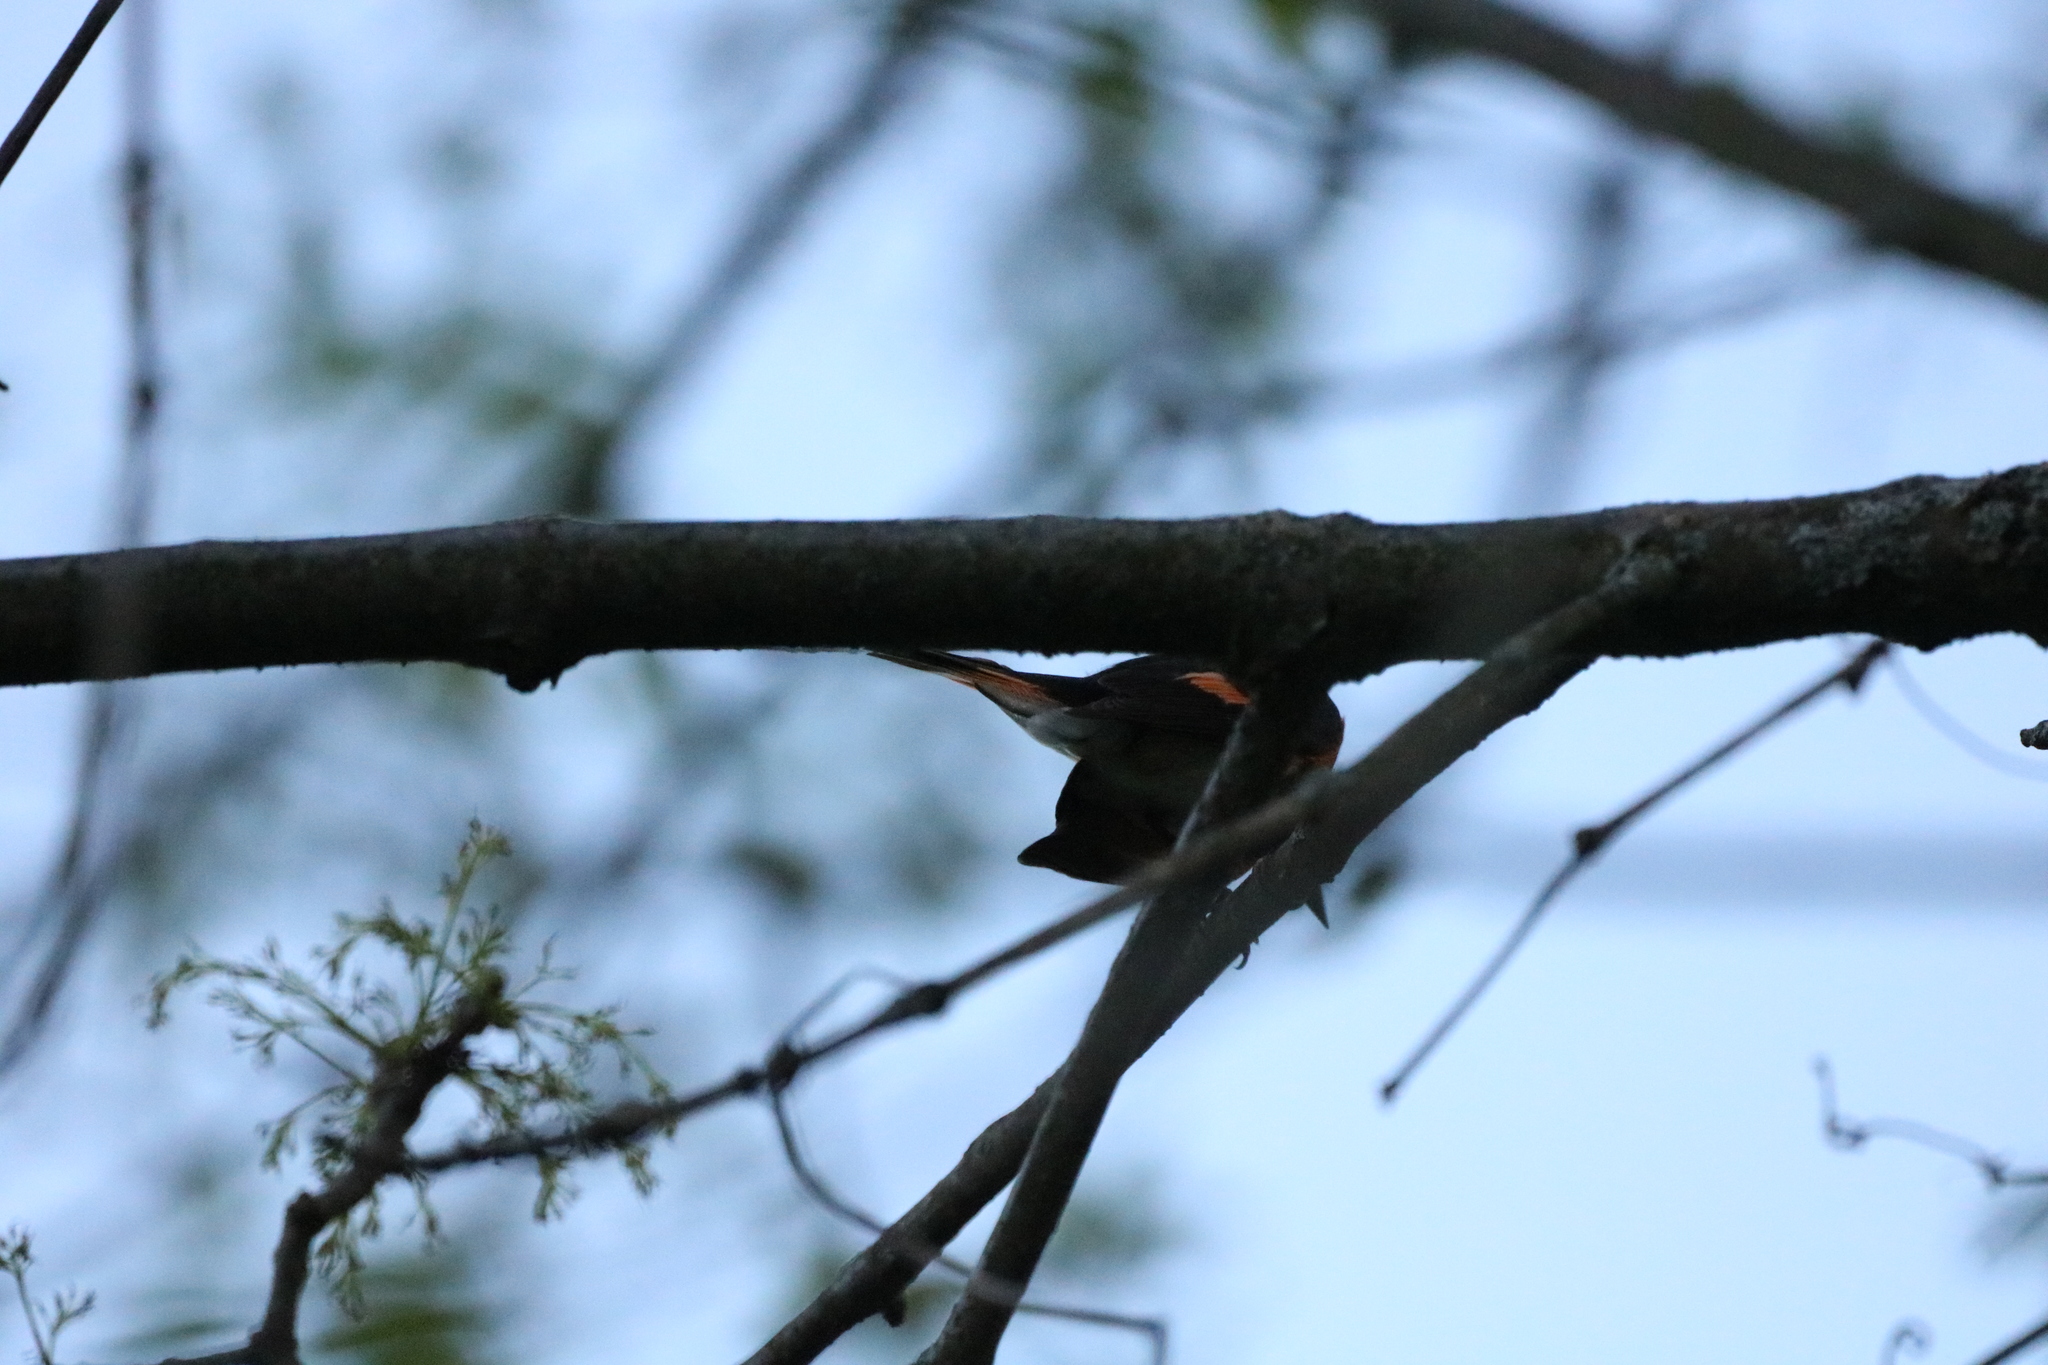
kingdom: Animalia
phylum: Chordata
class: Aves
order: Passeriformes
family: Parulidae
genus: Setophaga
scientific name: Setophaga ruticilla
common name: American redstart
